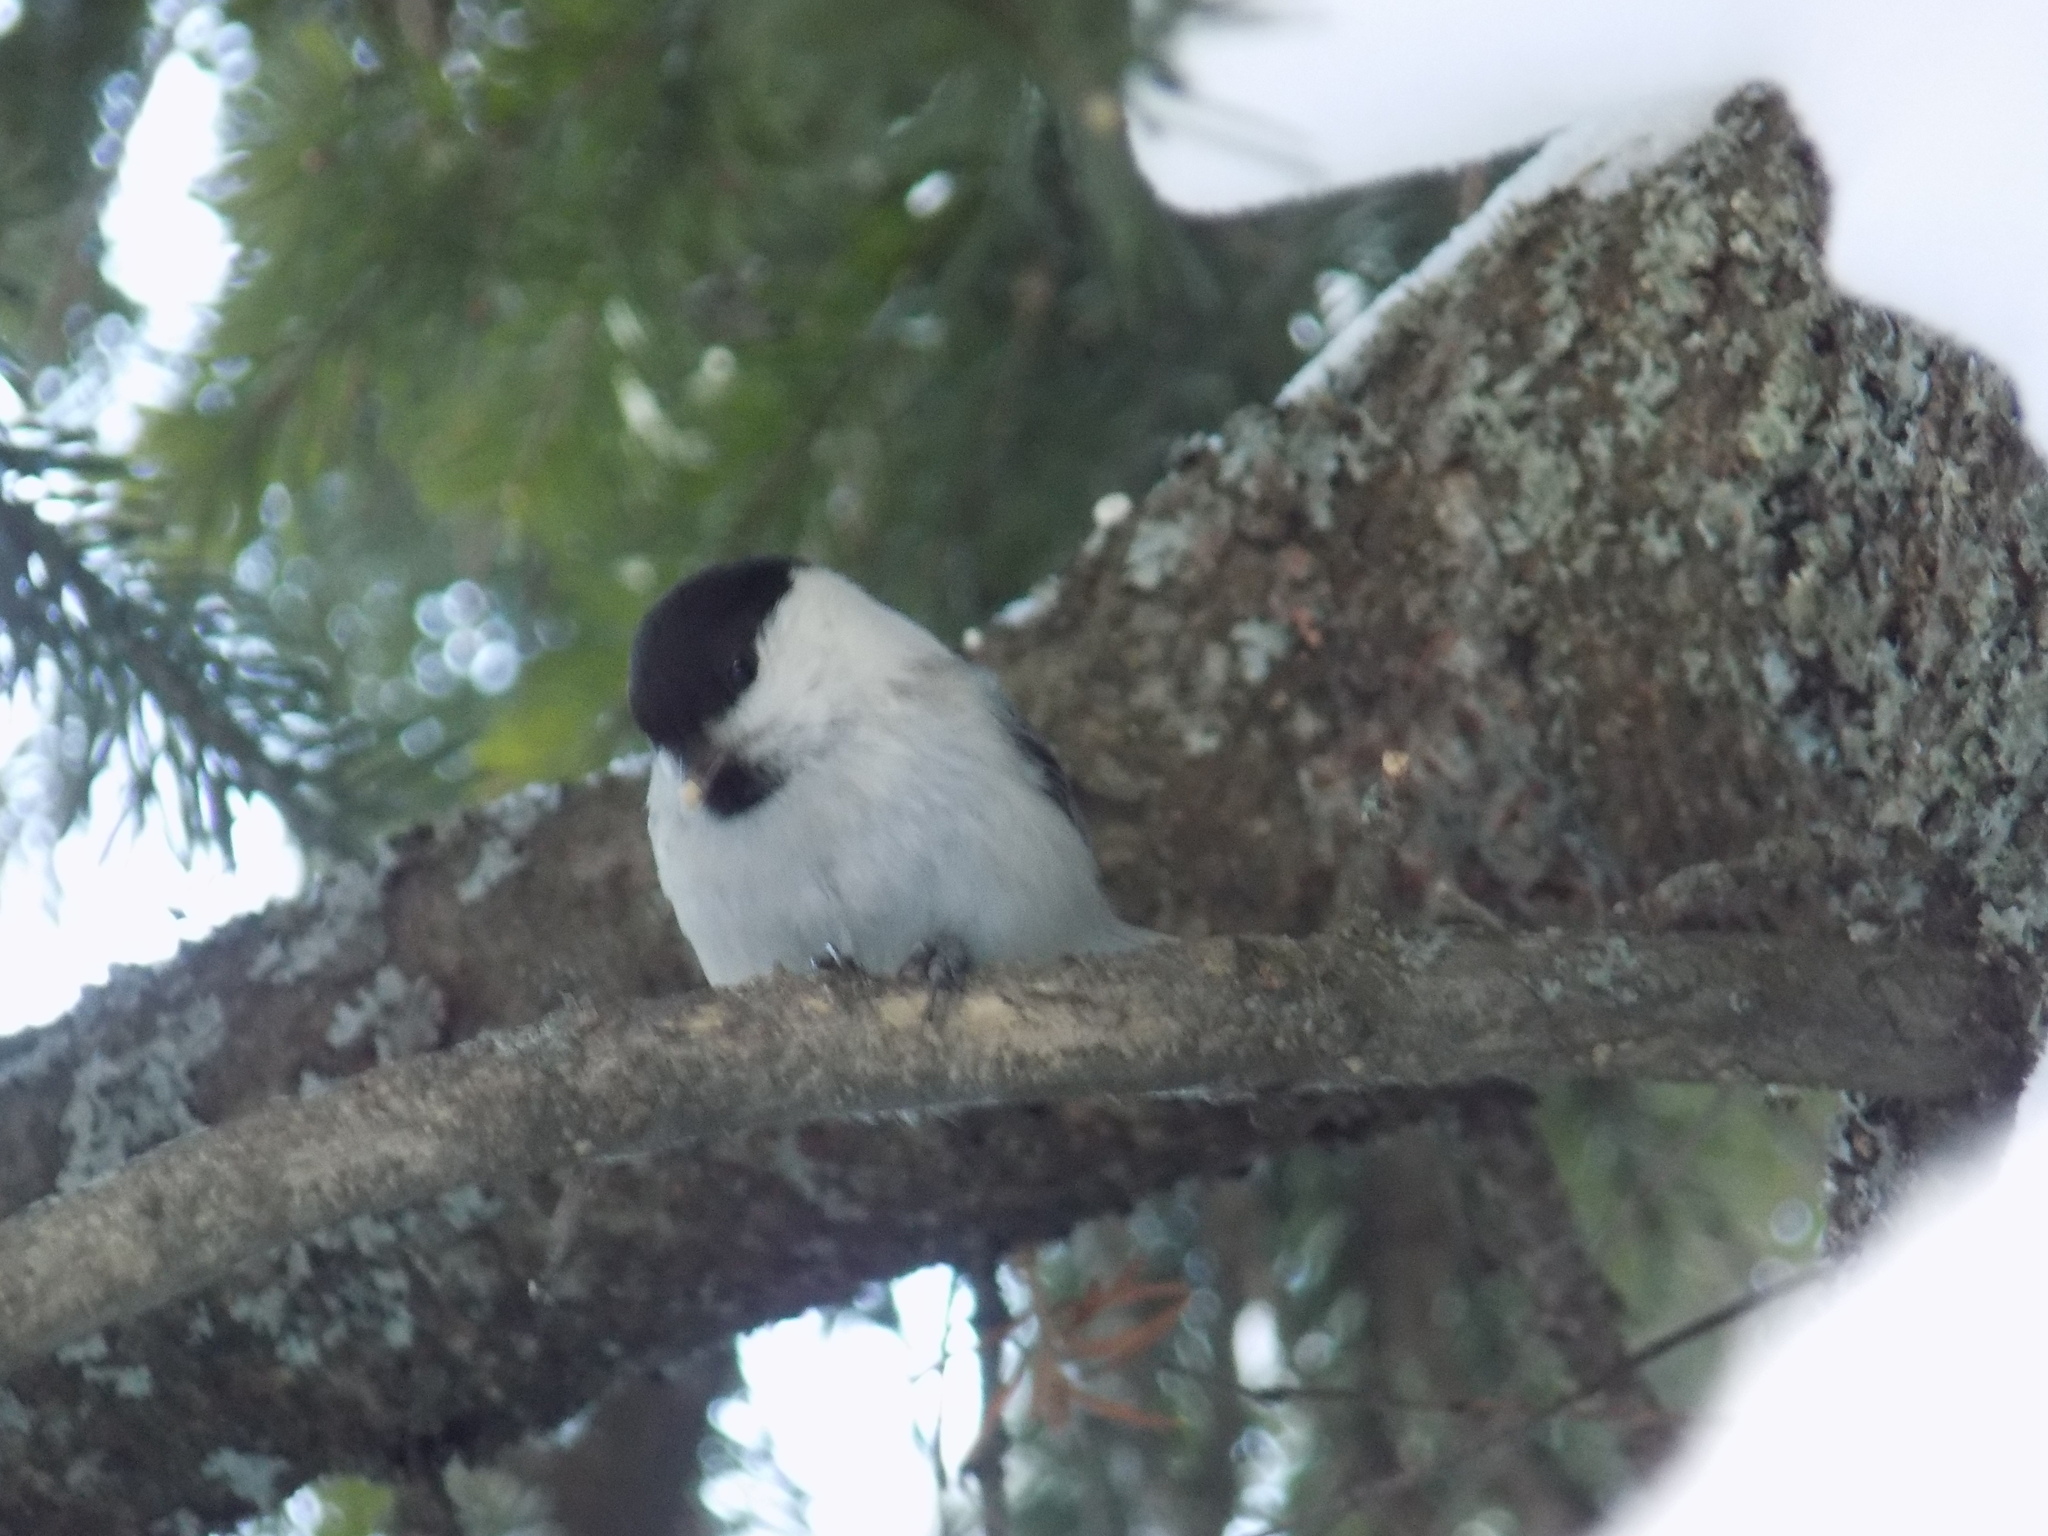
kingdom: Animalia
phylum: Chordata
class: Aves
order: Passeriformes
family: Paridae
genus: Poecile
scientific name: Poecile montanus
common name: Willow tit
